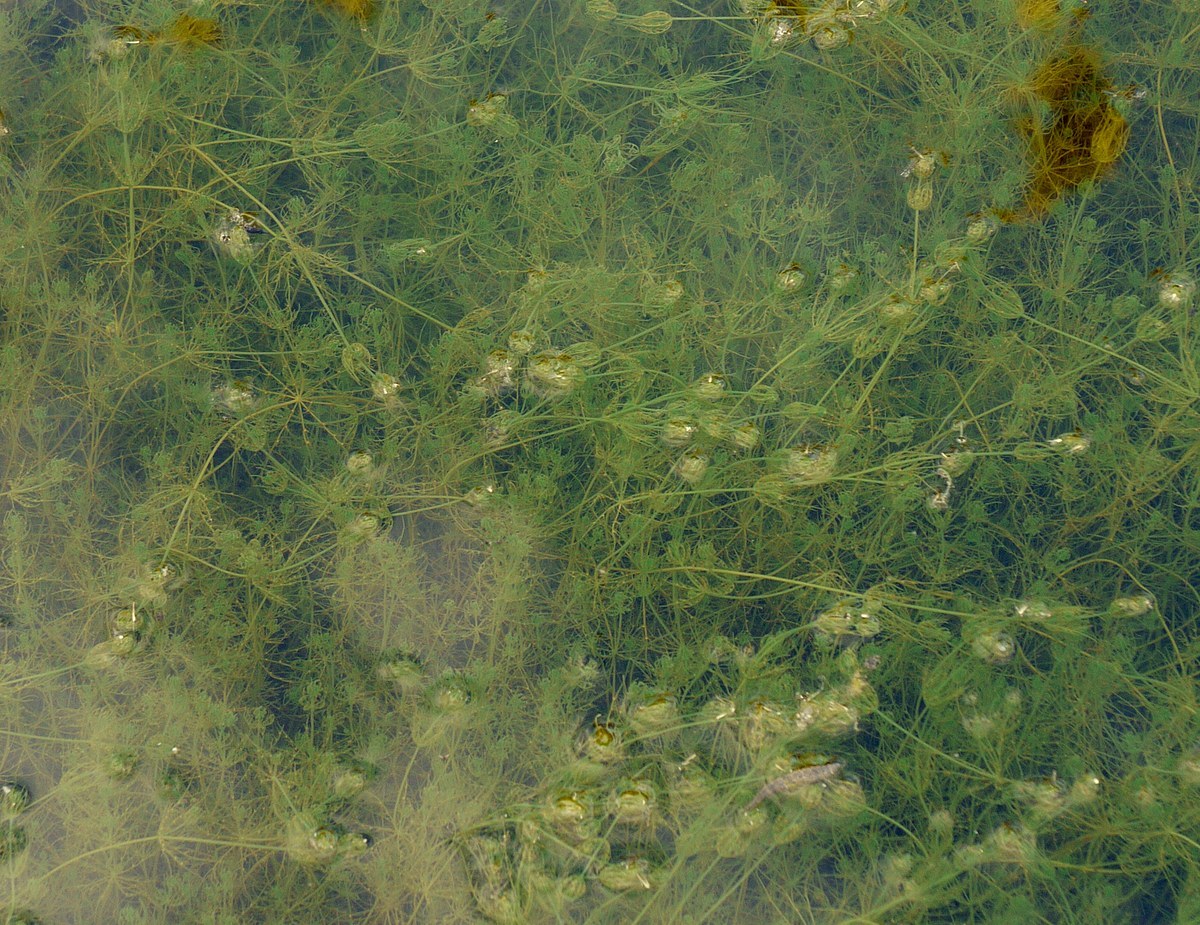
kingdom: Plantae
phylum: Charophyta
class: Charophyceae
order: Charales
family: Characeae
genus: Chara
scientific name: Chara vulgaris
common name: Common stonewort
